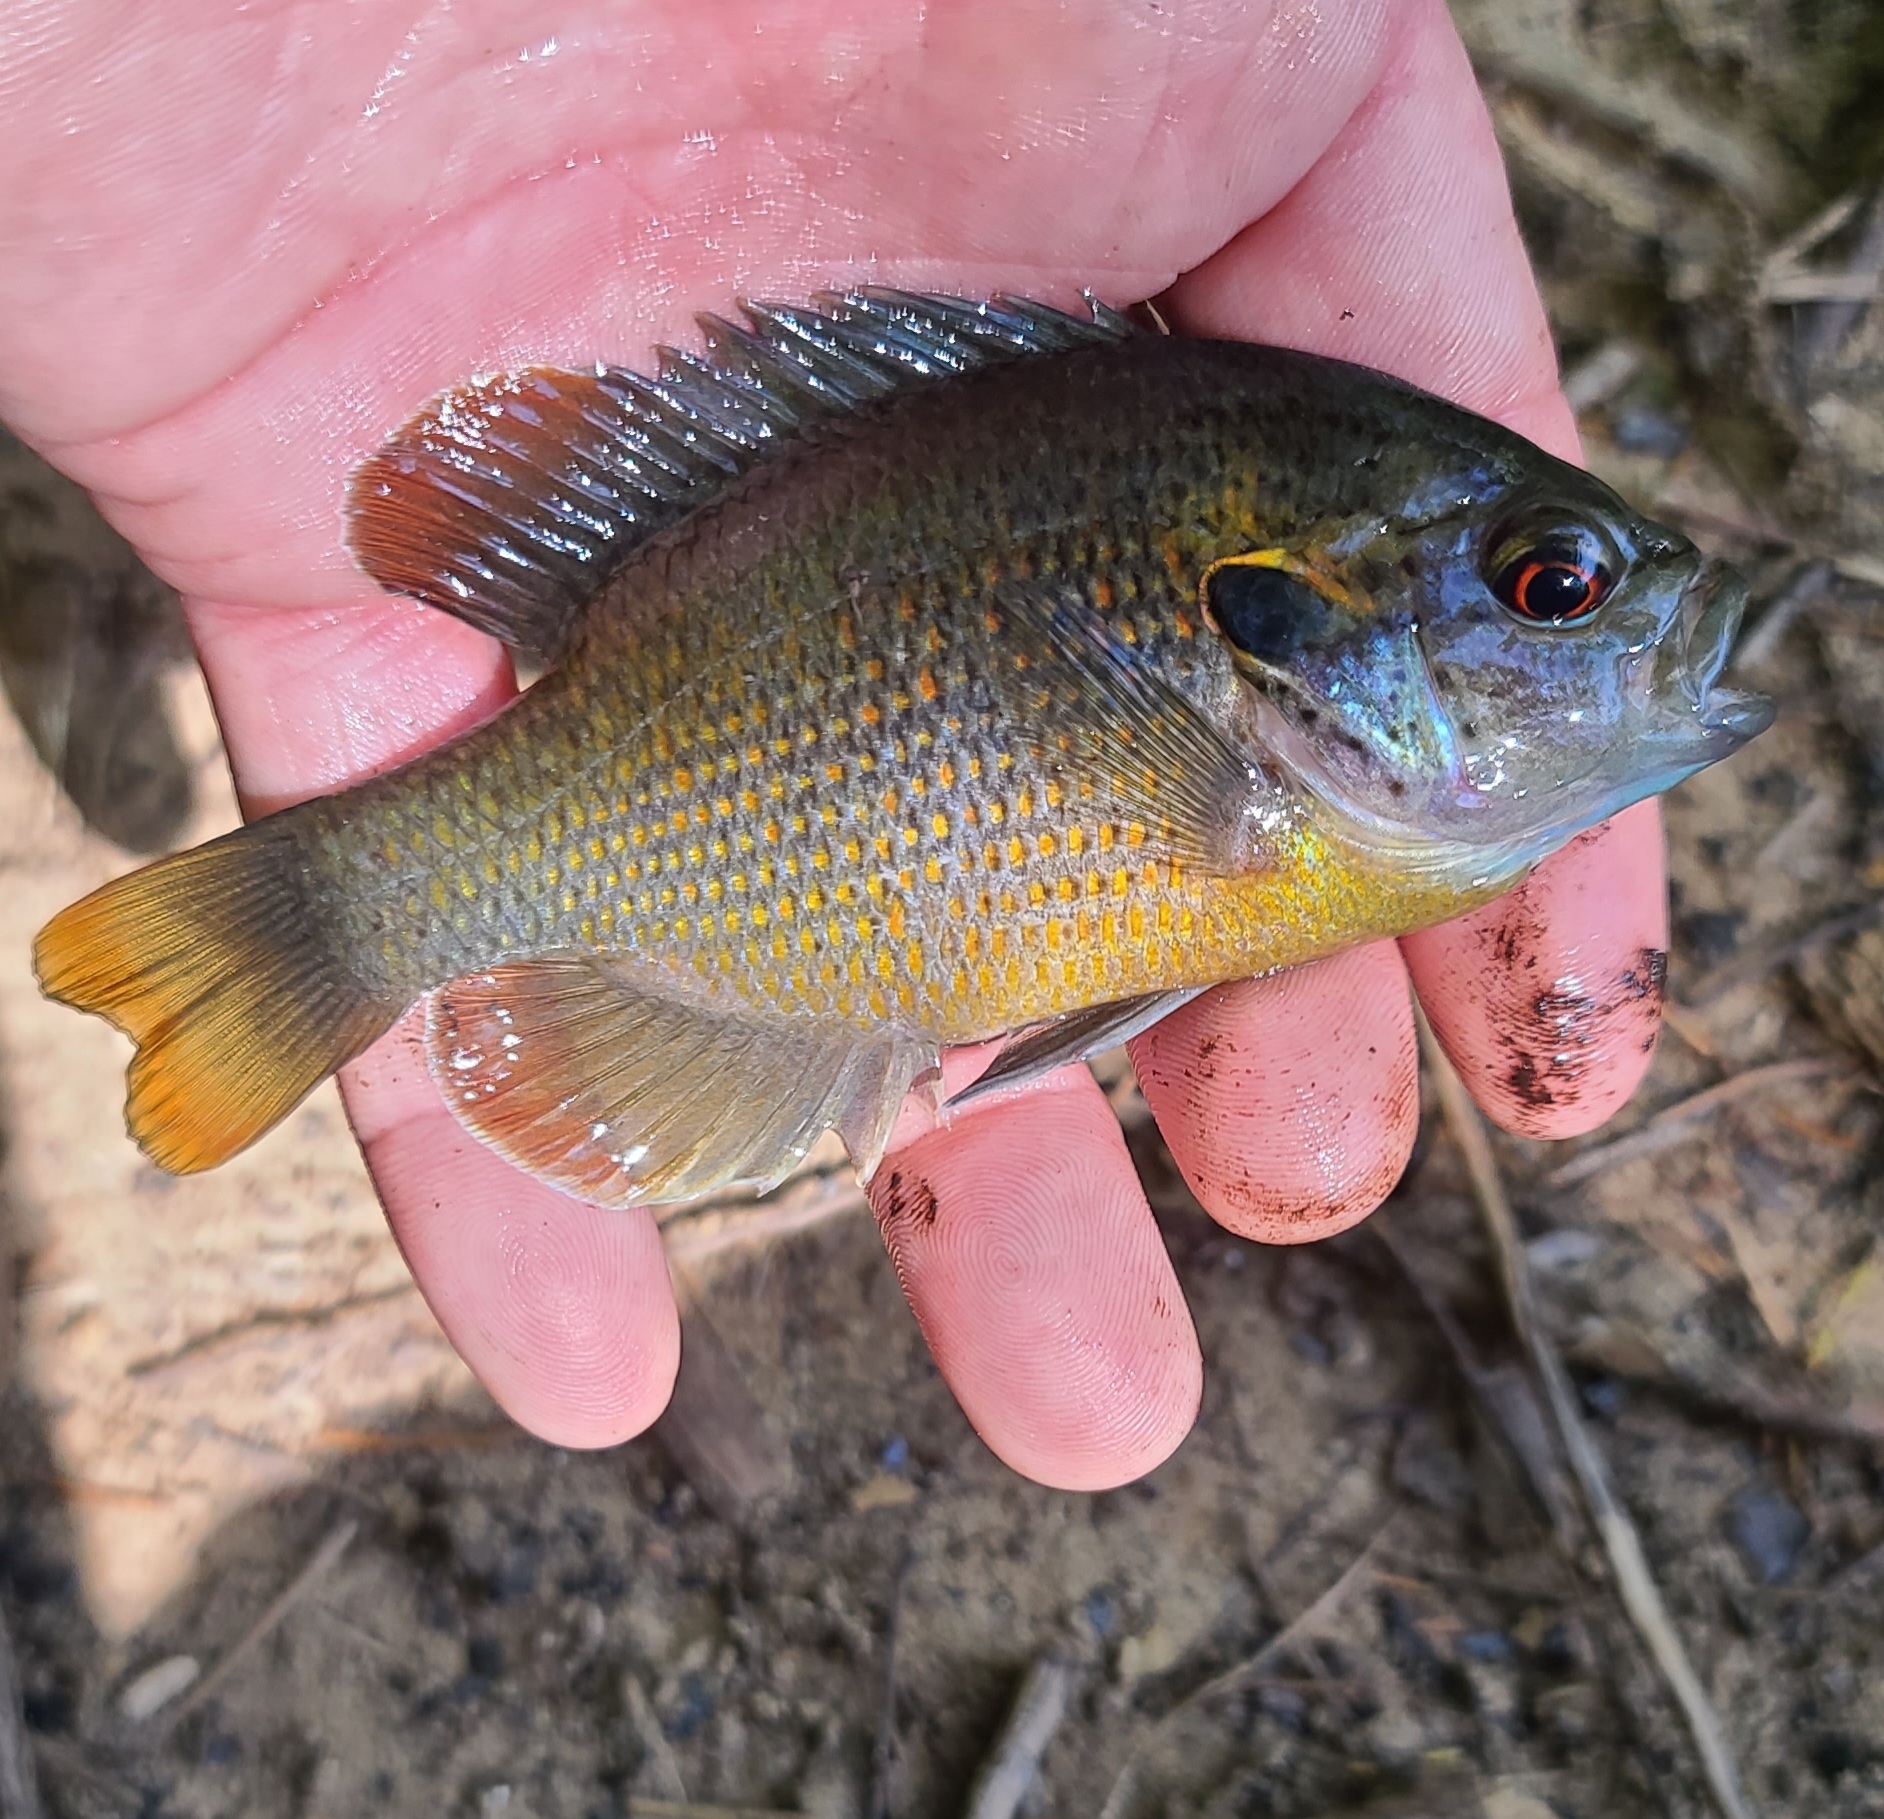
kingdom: Animalia
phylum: Chordata
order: Perciformes
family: Centrarchidae
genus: Lepomis
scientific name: Lepomis miniatus
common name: Redspotted sunfish
